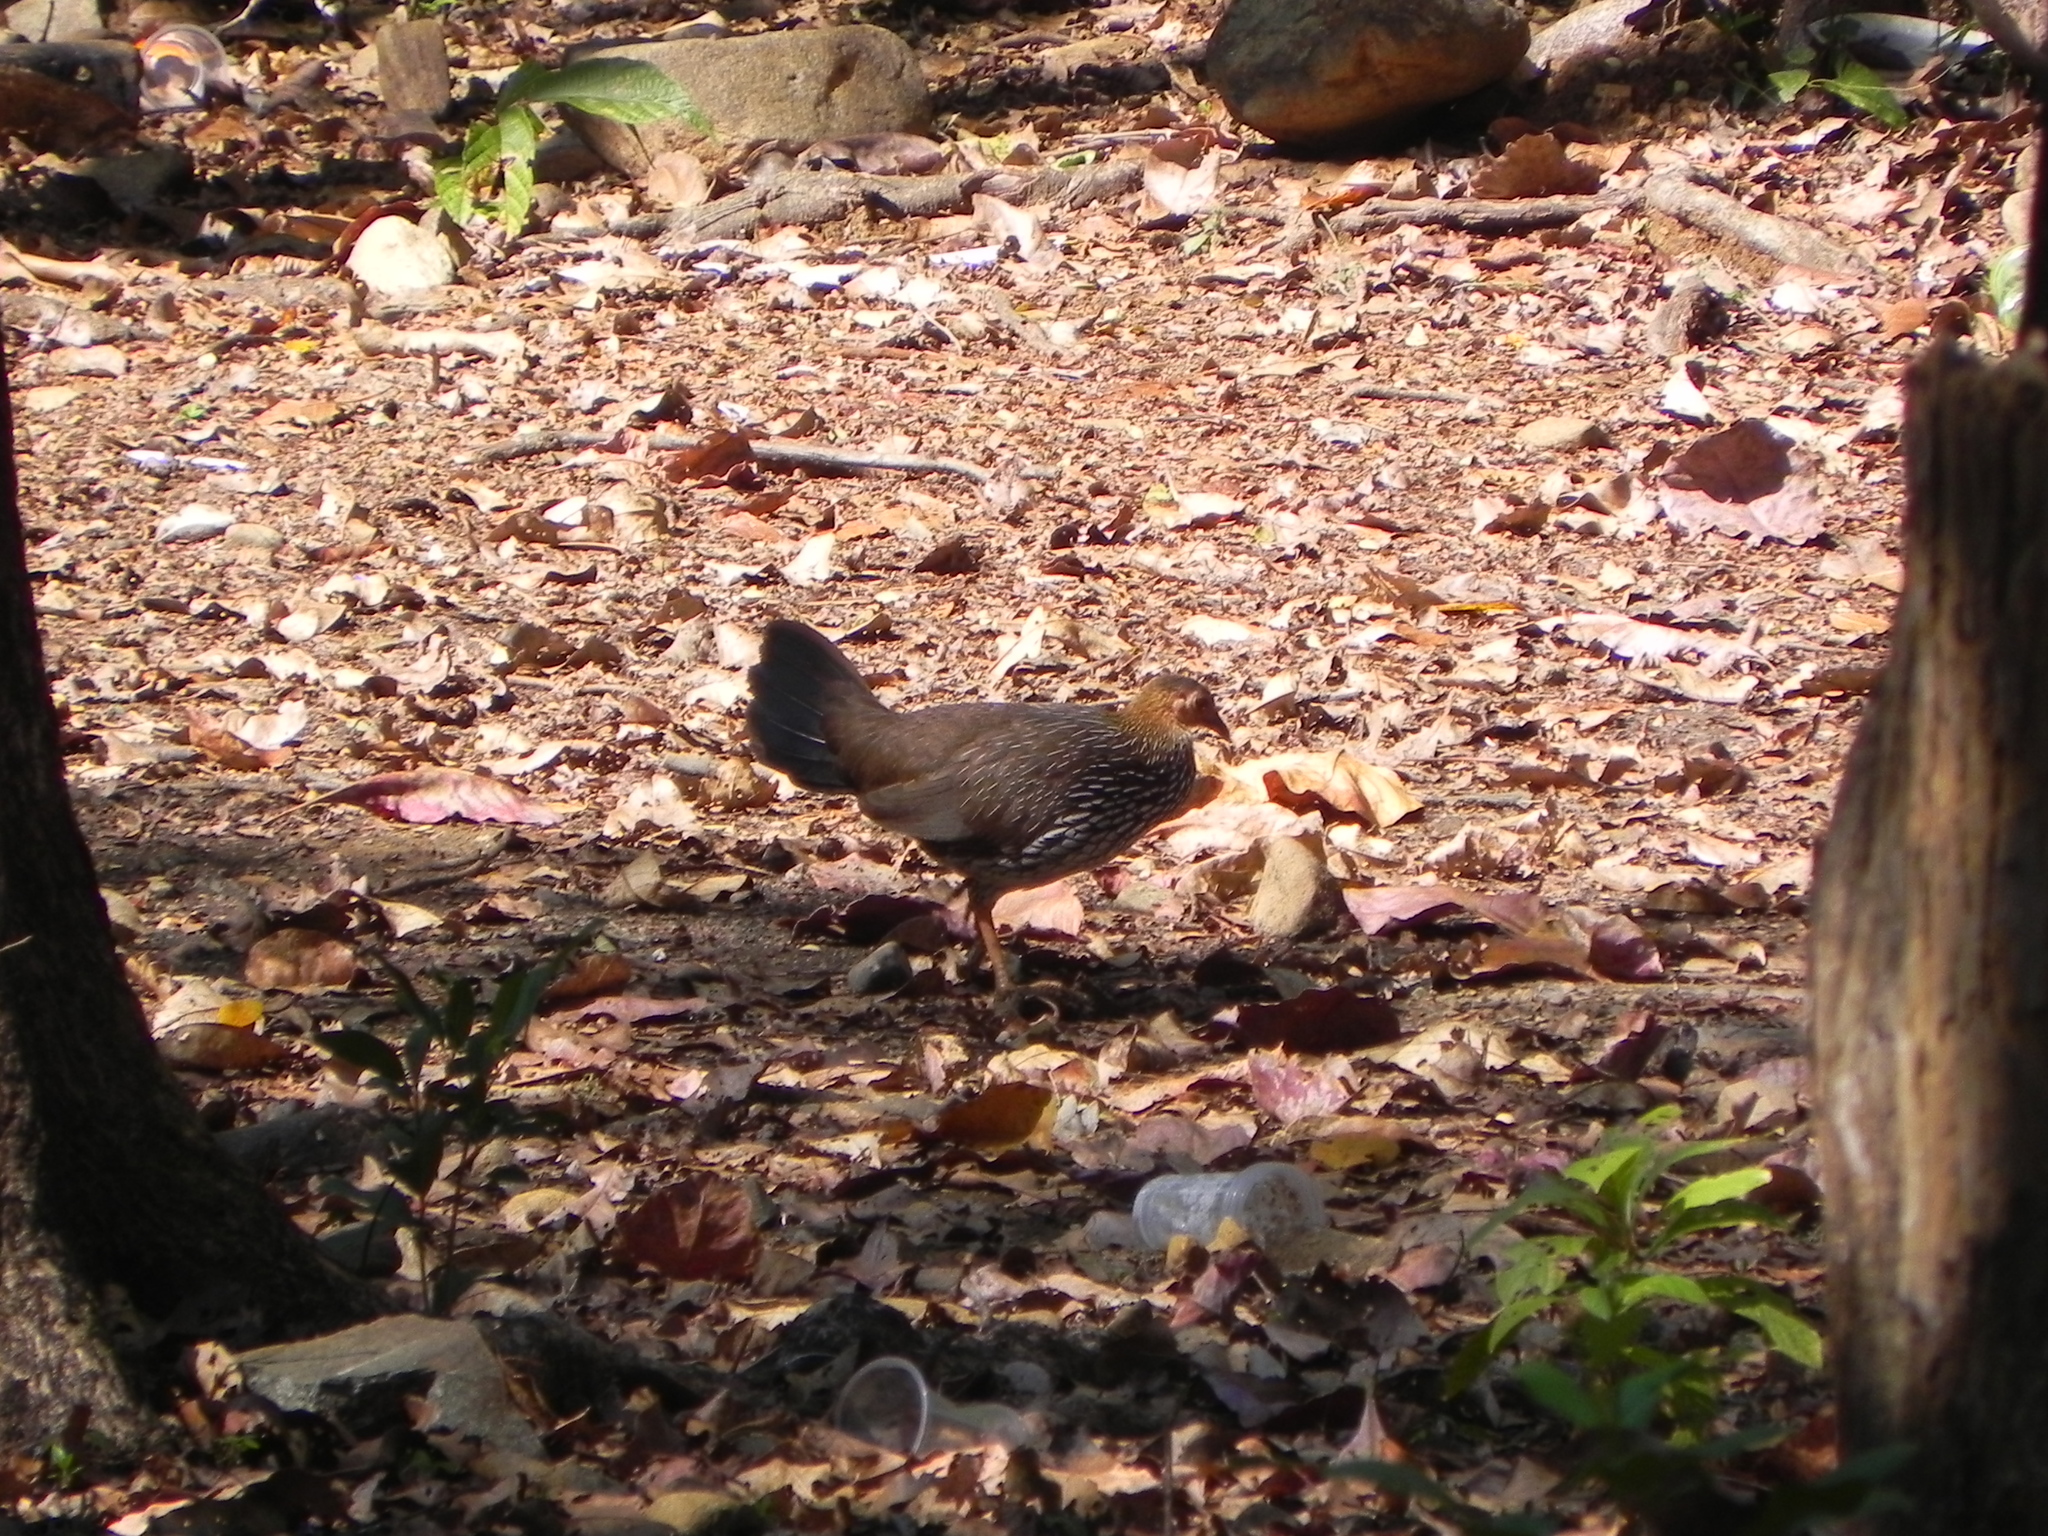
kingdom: Animalia
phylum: Chordata
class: Aves
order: Galliformes
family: Phasianidae
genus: Gallus
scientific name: Gallus sonneratii
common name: Grey junglefowl
